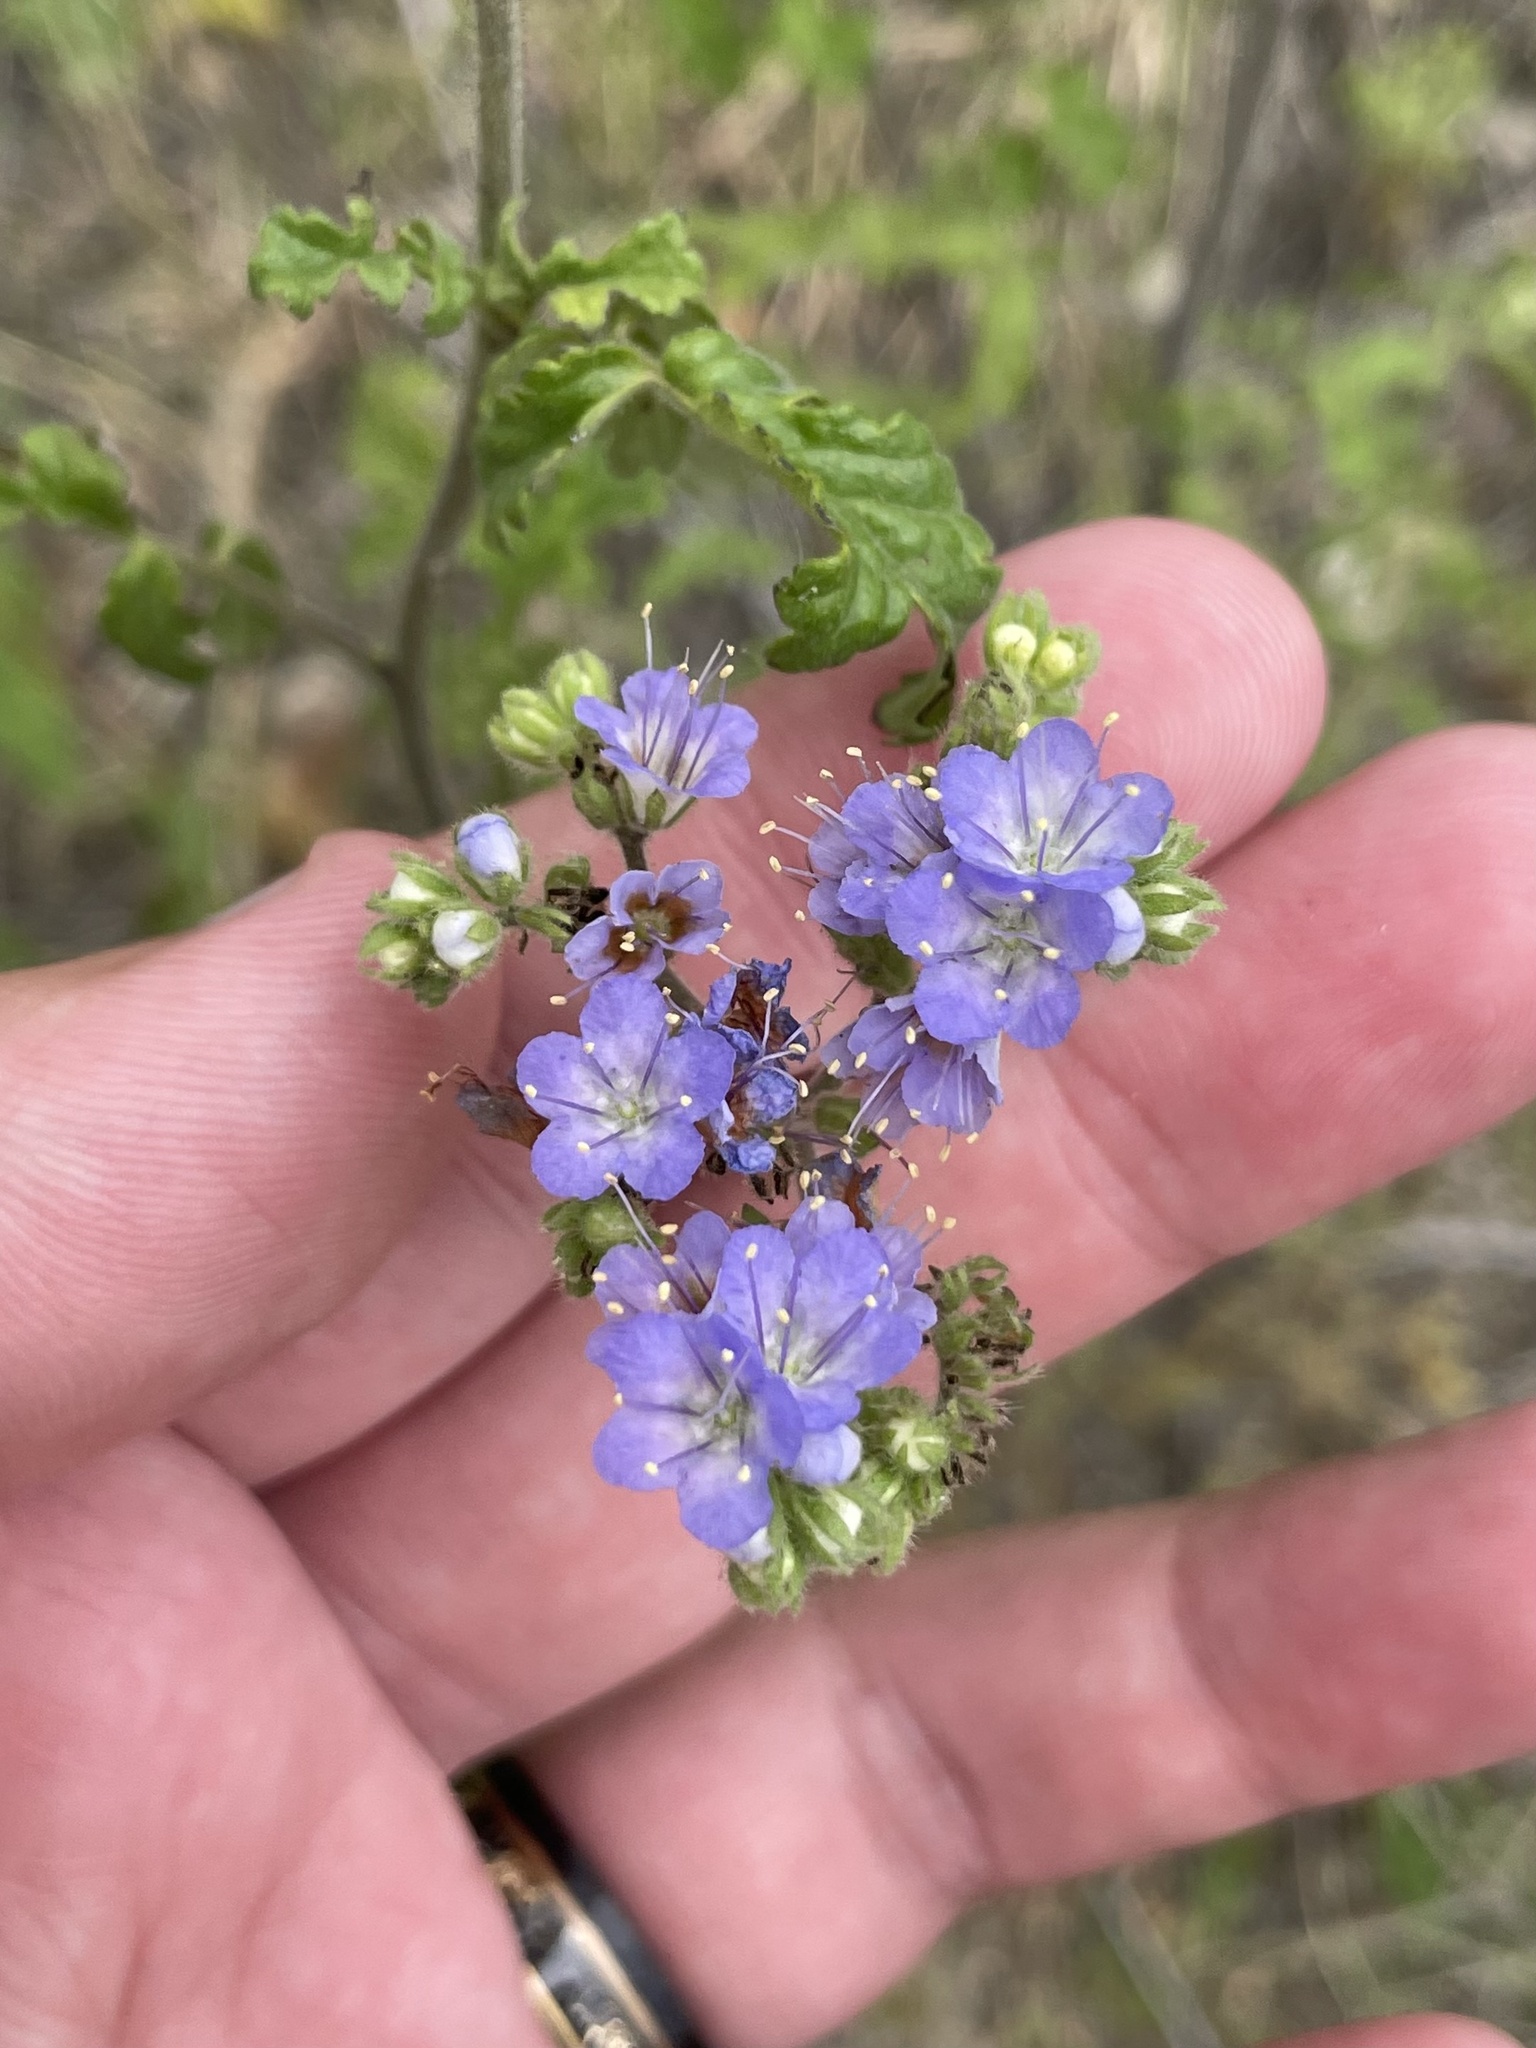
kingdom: Plantae
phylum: Tracheophyta
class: Magnoliopsida
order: Boraginales
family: Hydrophyllaceae
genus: Phacelia
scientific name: Phacelia congesta
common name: Blue curls
